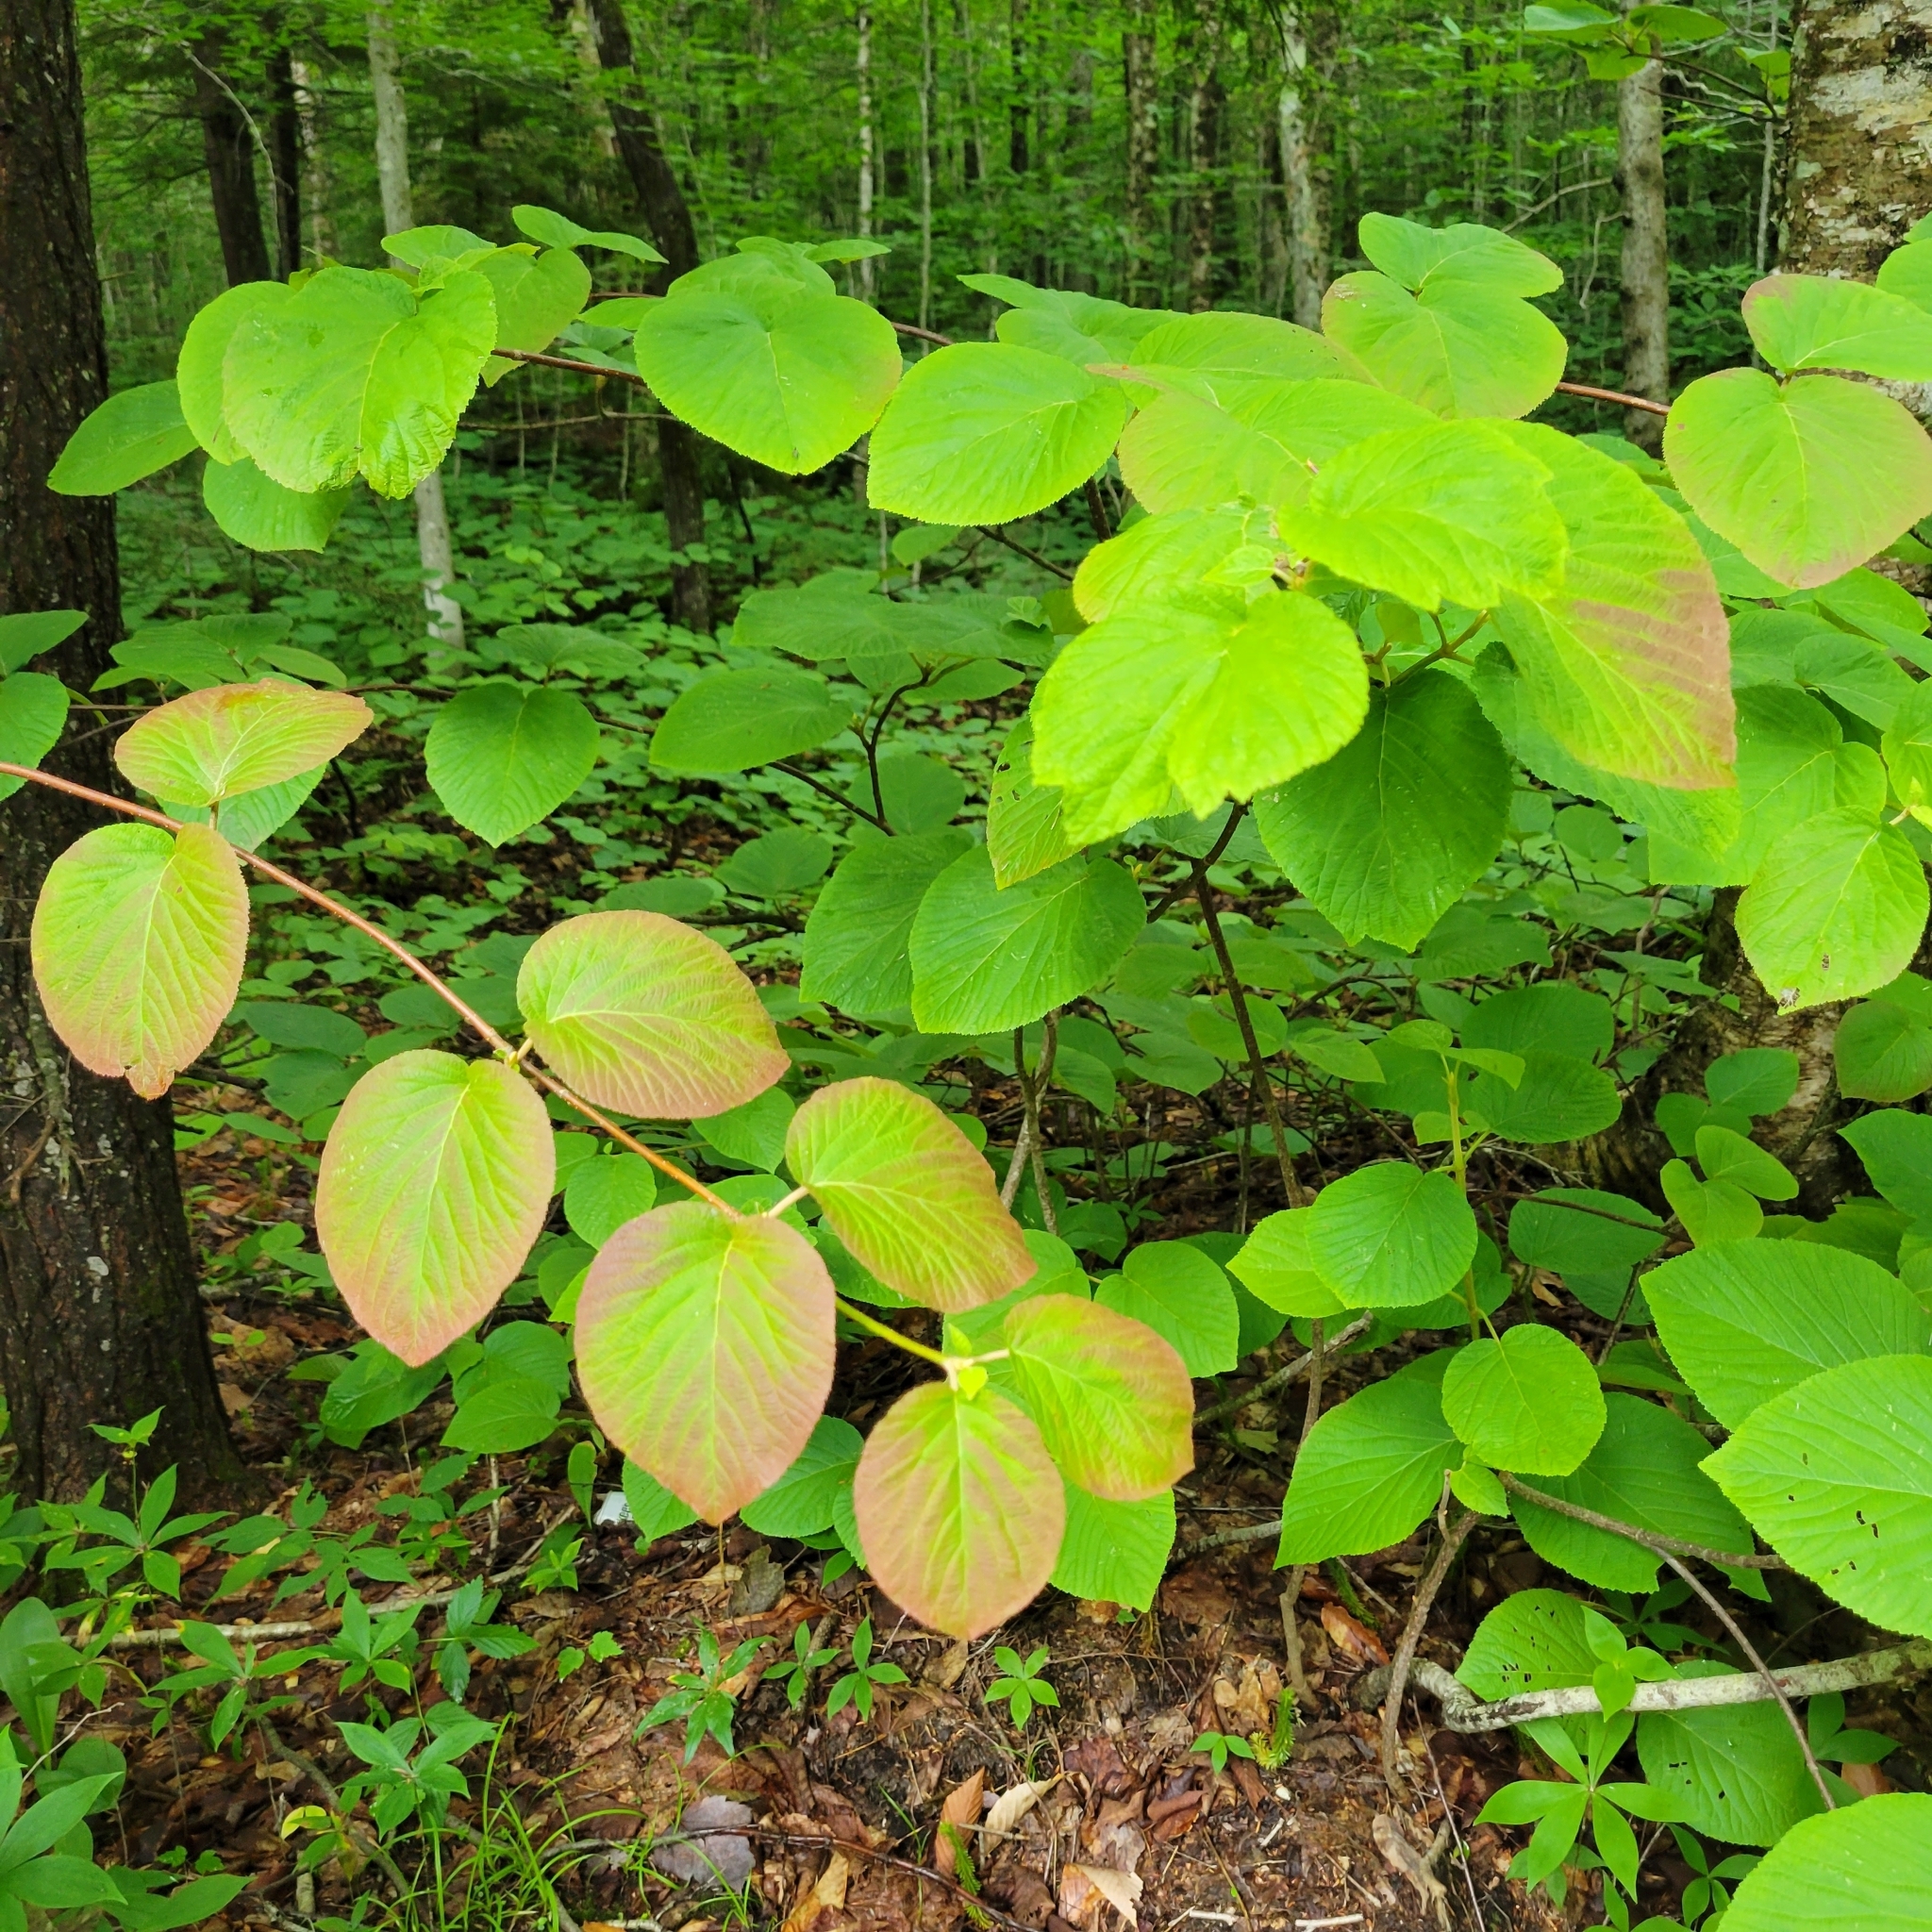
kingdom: Plantae
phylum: Tracheophyta
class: Magnoliopsida
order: Dipsacales
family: Viburnaceae
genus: Viburnum
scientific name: Viburnum lantanoides
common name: Hobblebush
